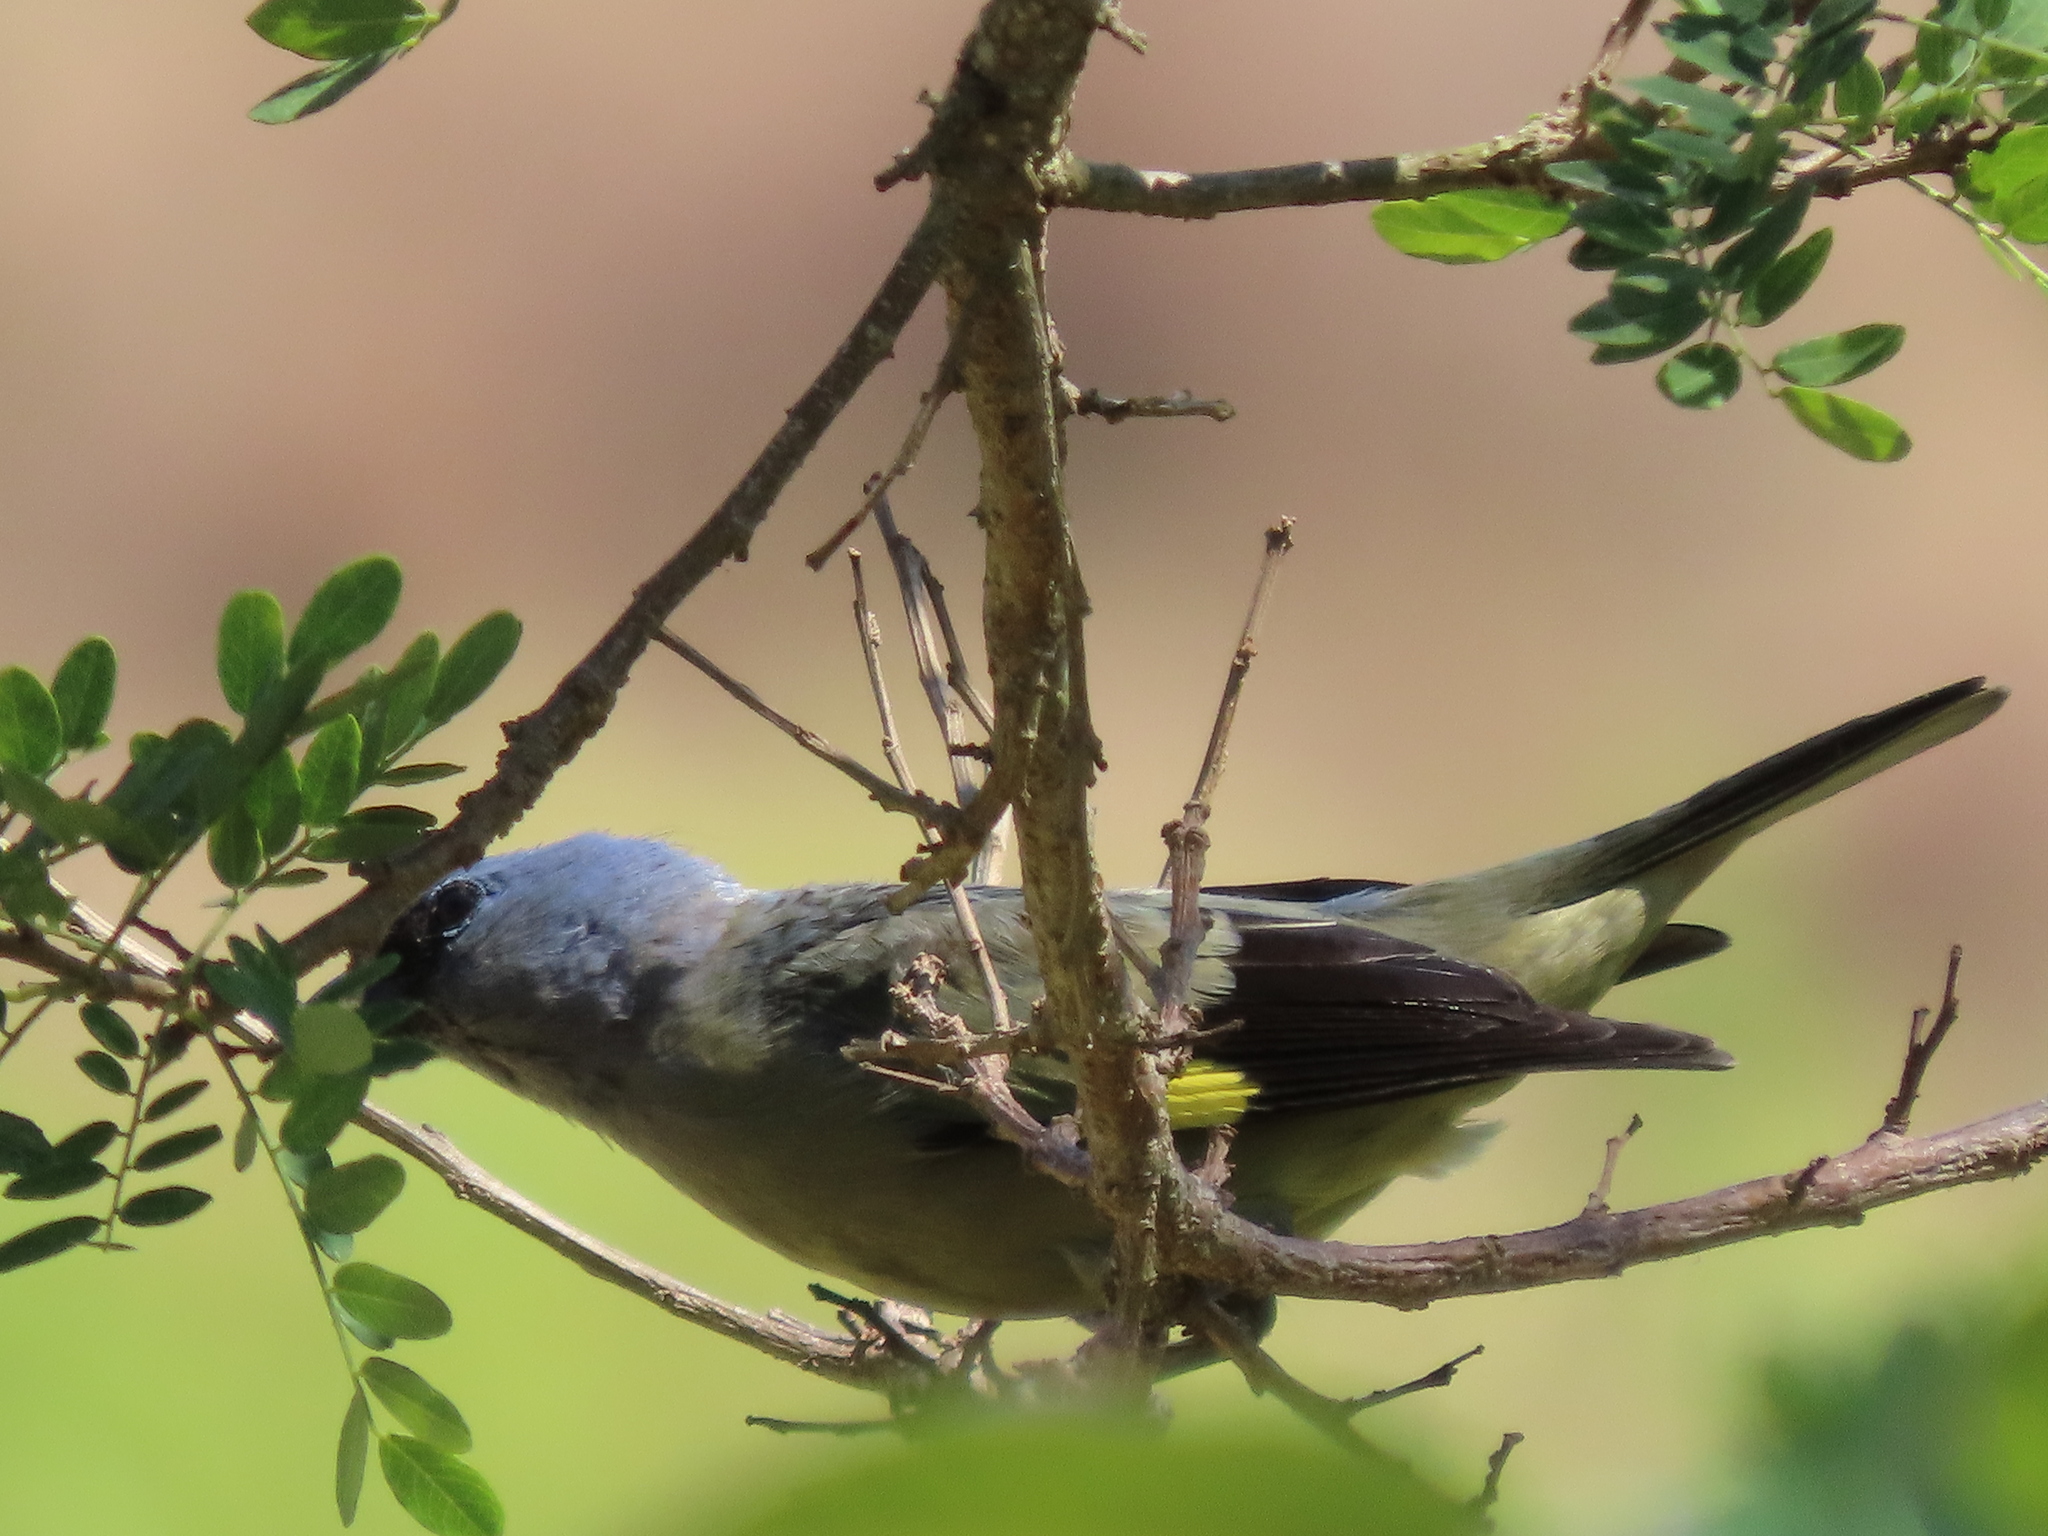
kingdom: Animalia
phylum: Chordata
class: Aves
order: Passeriformes
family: Thraupidae
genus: Thraupis
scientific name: Thraupis abbas
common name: Yellow-winged tanager
